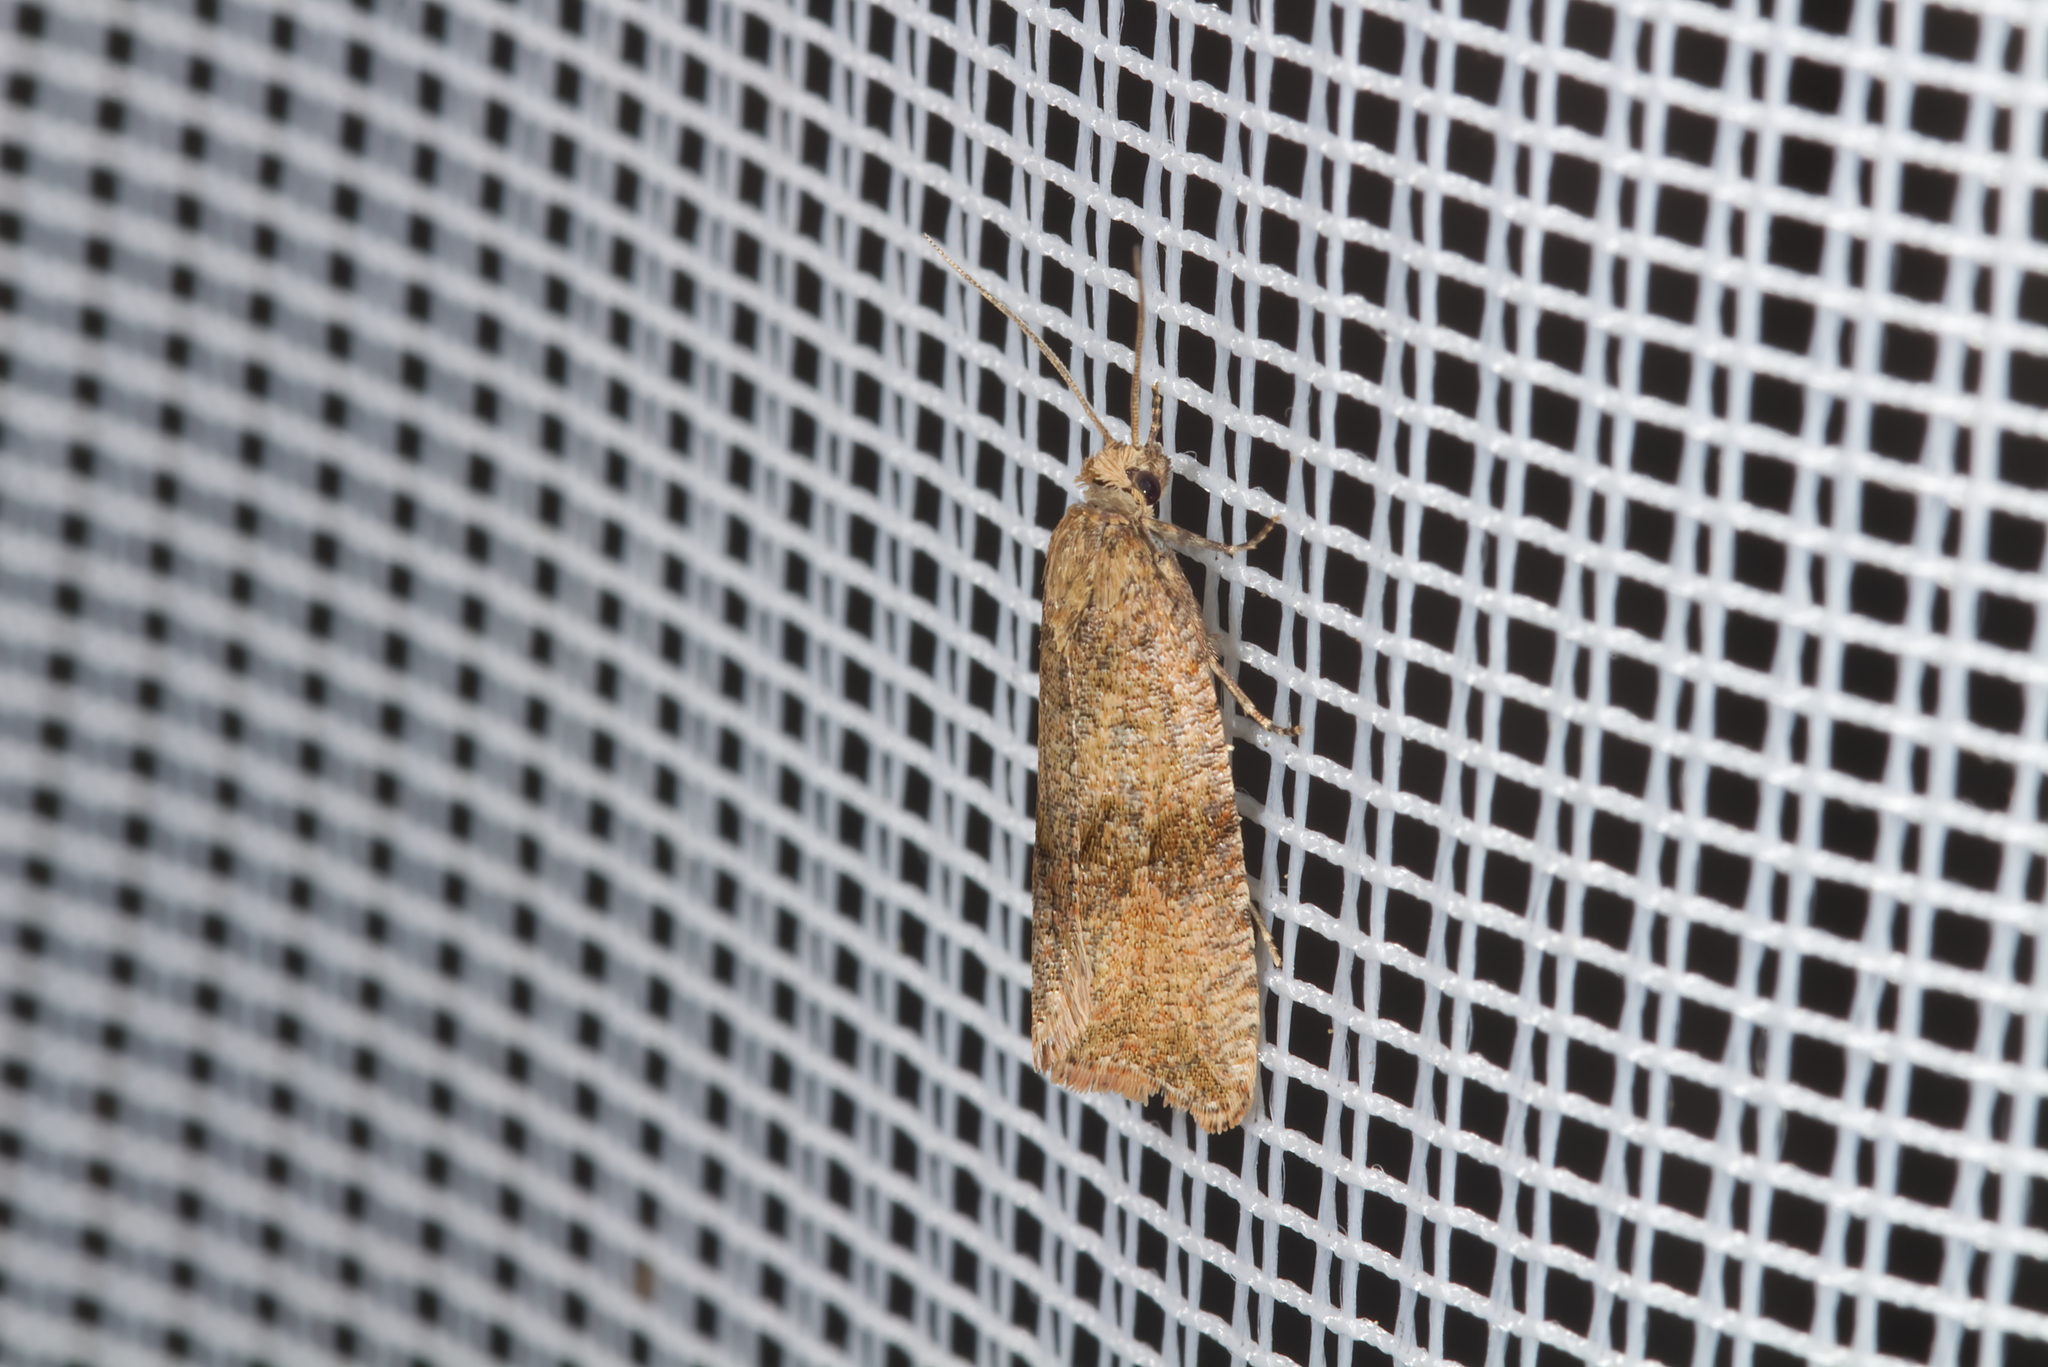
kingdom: Animalia
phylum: Arthropoda
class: Insecta
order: Lepidoptera
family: Tortricidae
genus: Celypha
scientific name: Celypha striana
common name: Barred marble
